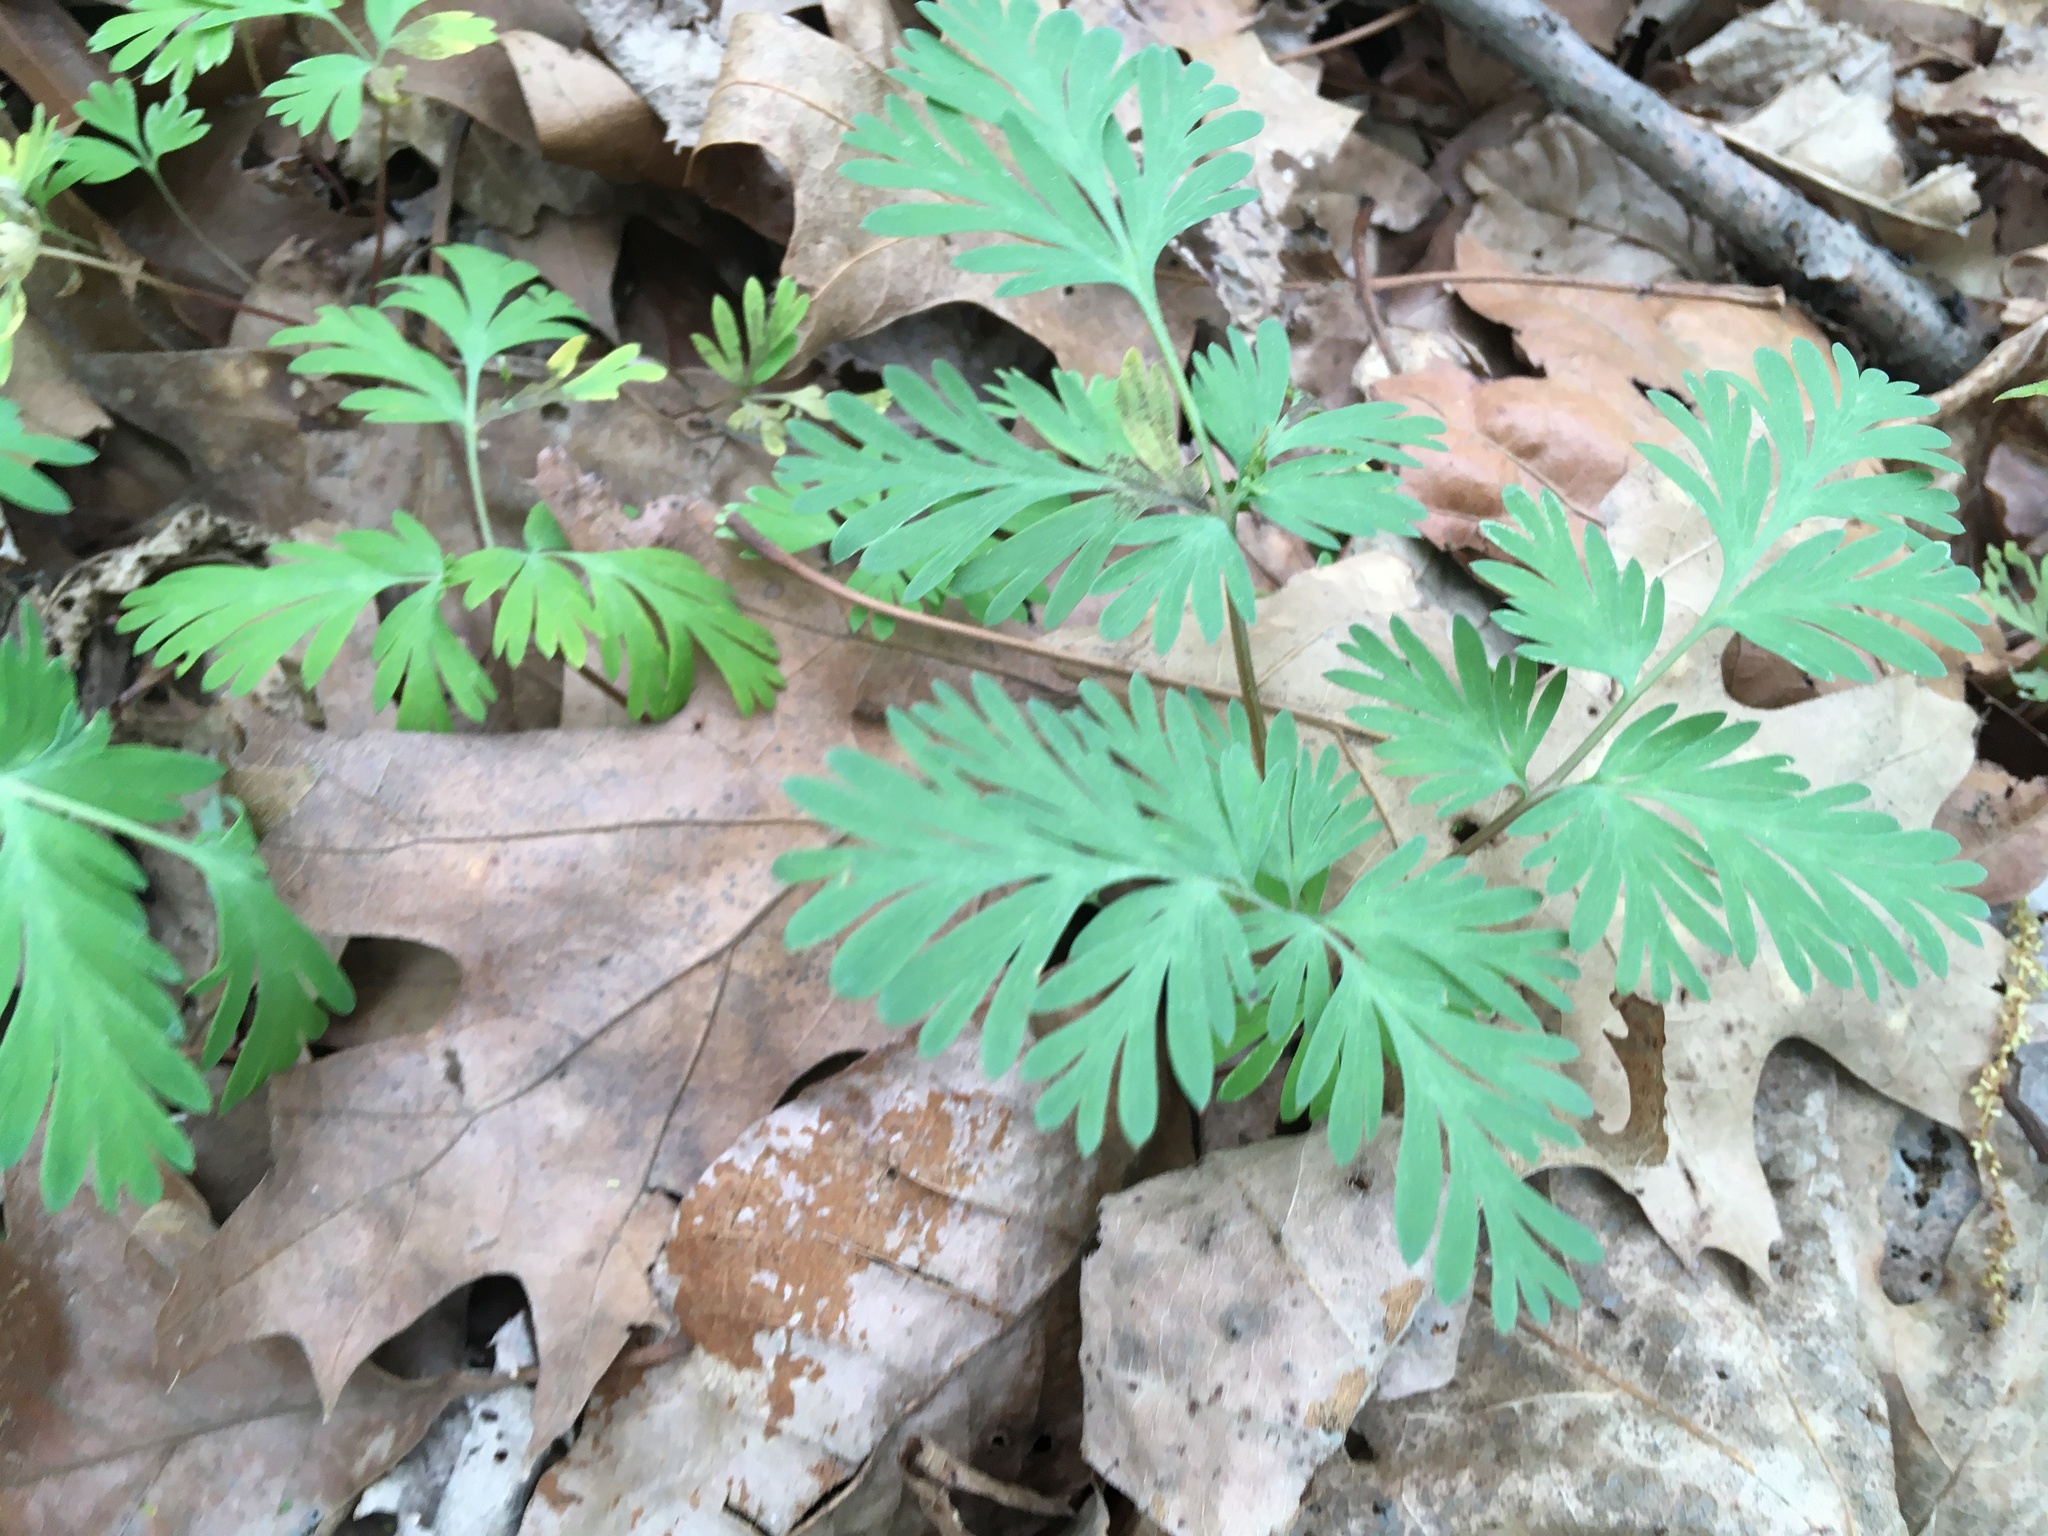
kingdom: Plantae
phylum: Tracheophyta
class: Magnoliopsida
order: Ranunculales
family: Papaveraceae
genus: Dicentra
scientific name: Dicentra cucullaria
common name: Dutchman's breeches
